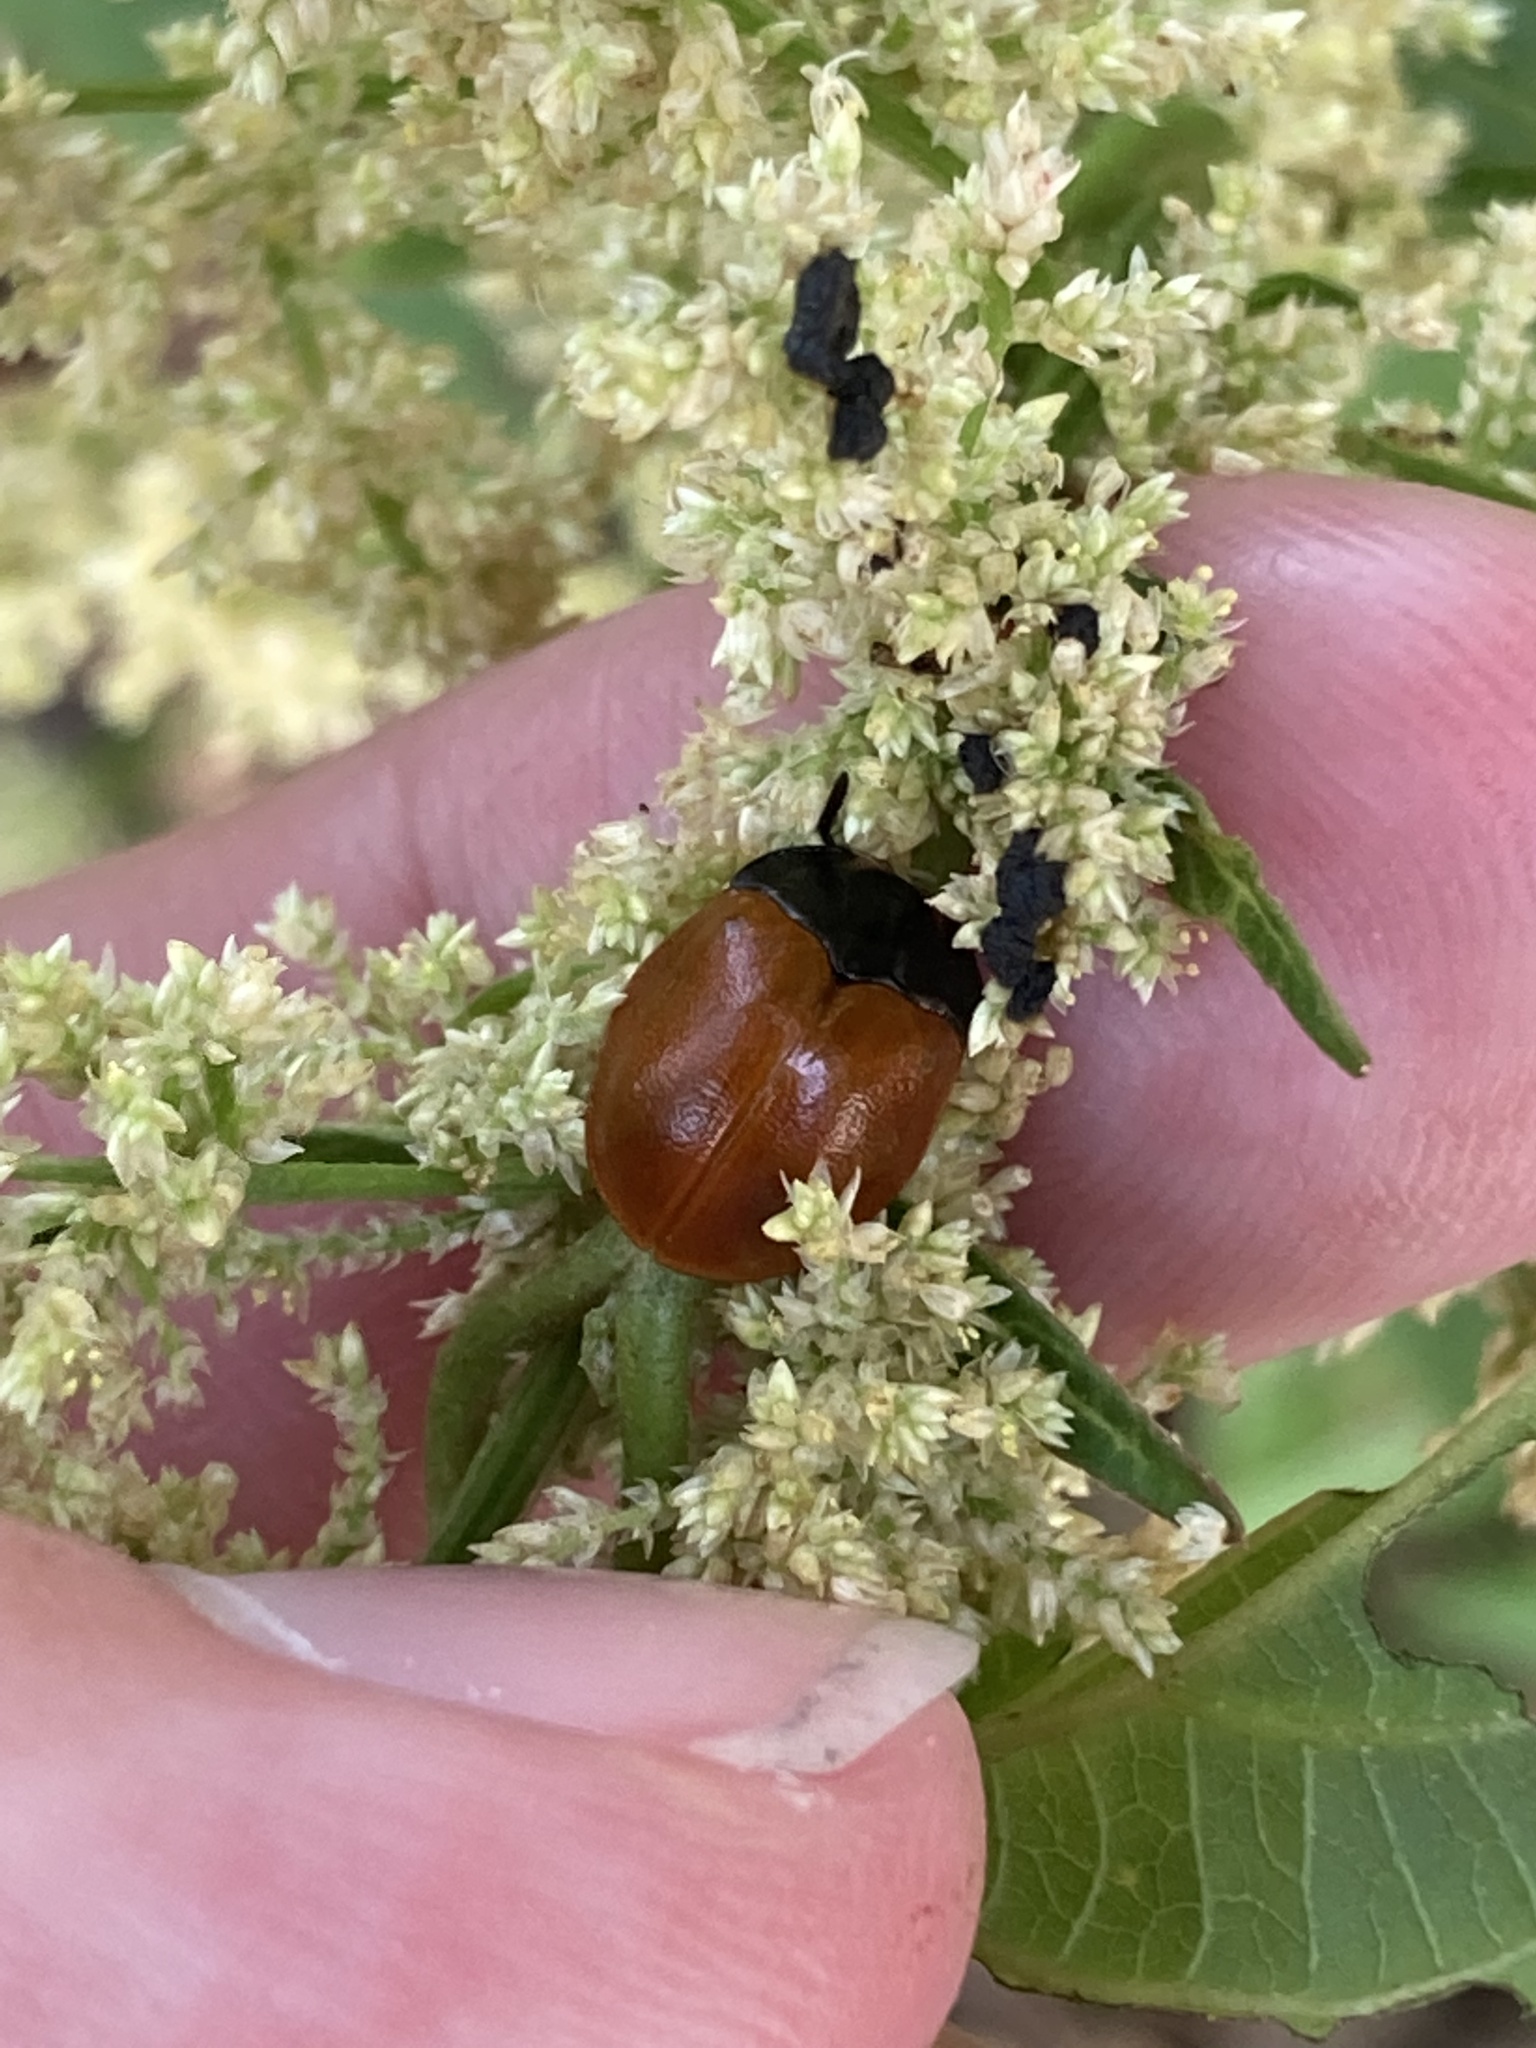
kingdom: Animalia
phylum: Arthropoda
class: Insecta
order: Coleoptera
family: Chrysomelidae
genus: Chelymorpha
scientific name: Chelymorpha cribraria
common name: Tortoise beetle
